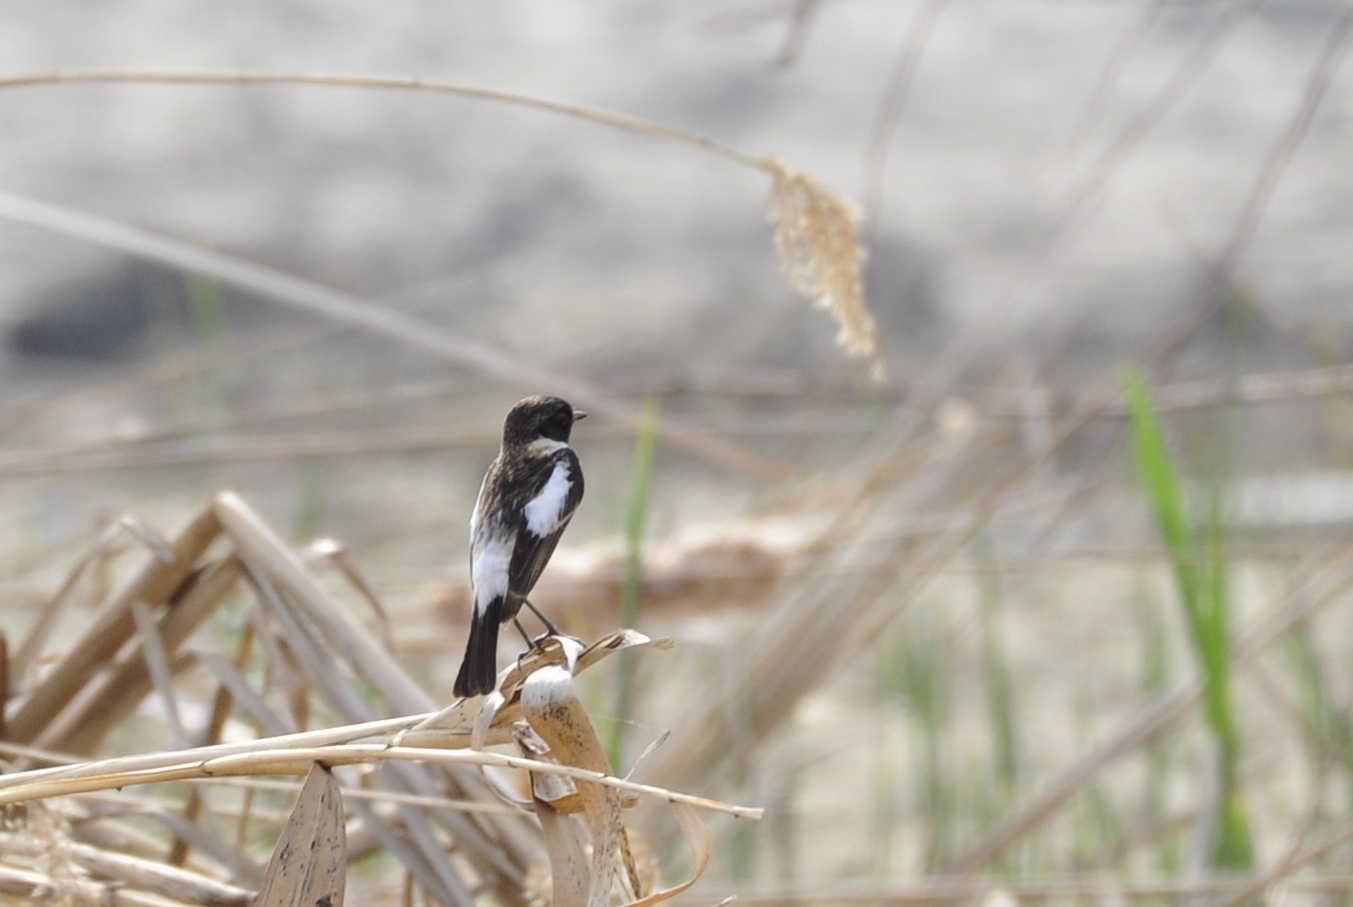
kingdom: Animalia
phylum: Chordata
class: Aves
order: Passeriformes
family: Muscicapidae
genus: Saxicola
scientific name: Saxicola maurus
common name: Siberian stonechat
